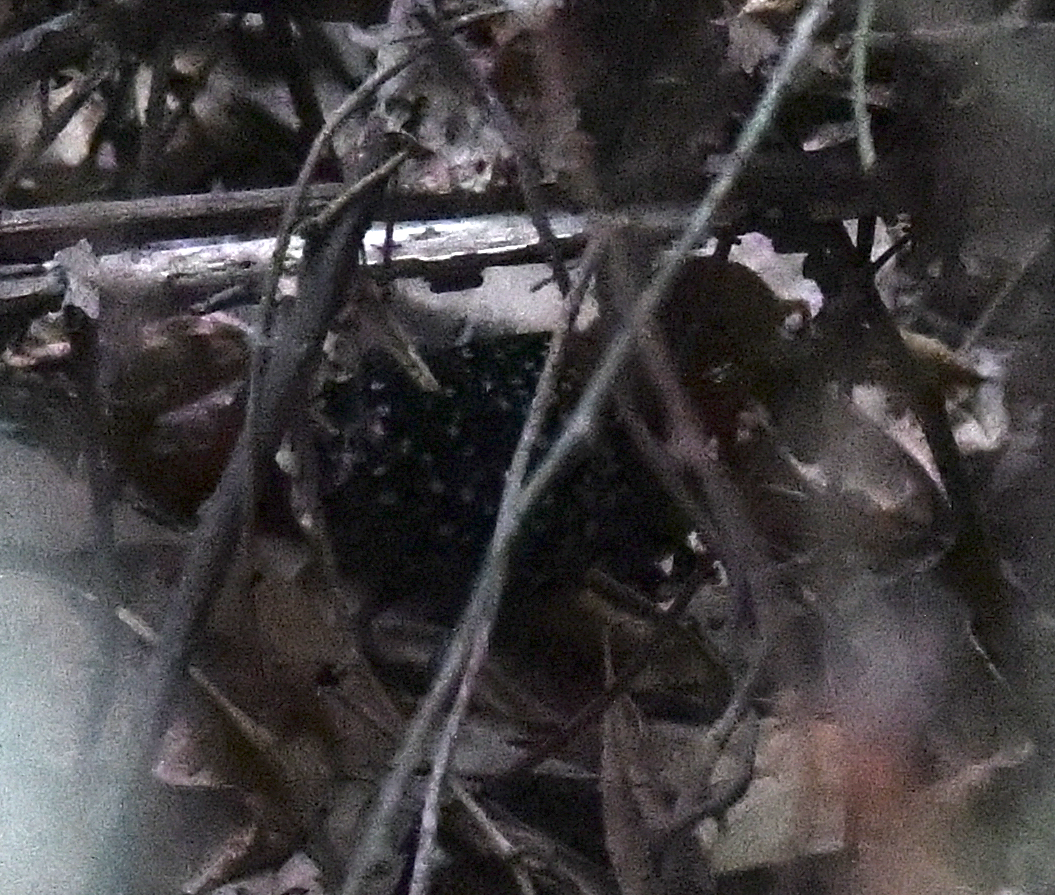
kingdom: Animalia
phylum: Chordata
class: Aves
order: Gruiformes
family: Rallidae
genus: Sarothrura
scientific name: Sarothrura pulchra
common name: White-spotted flufftail
